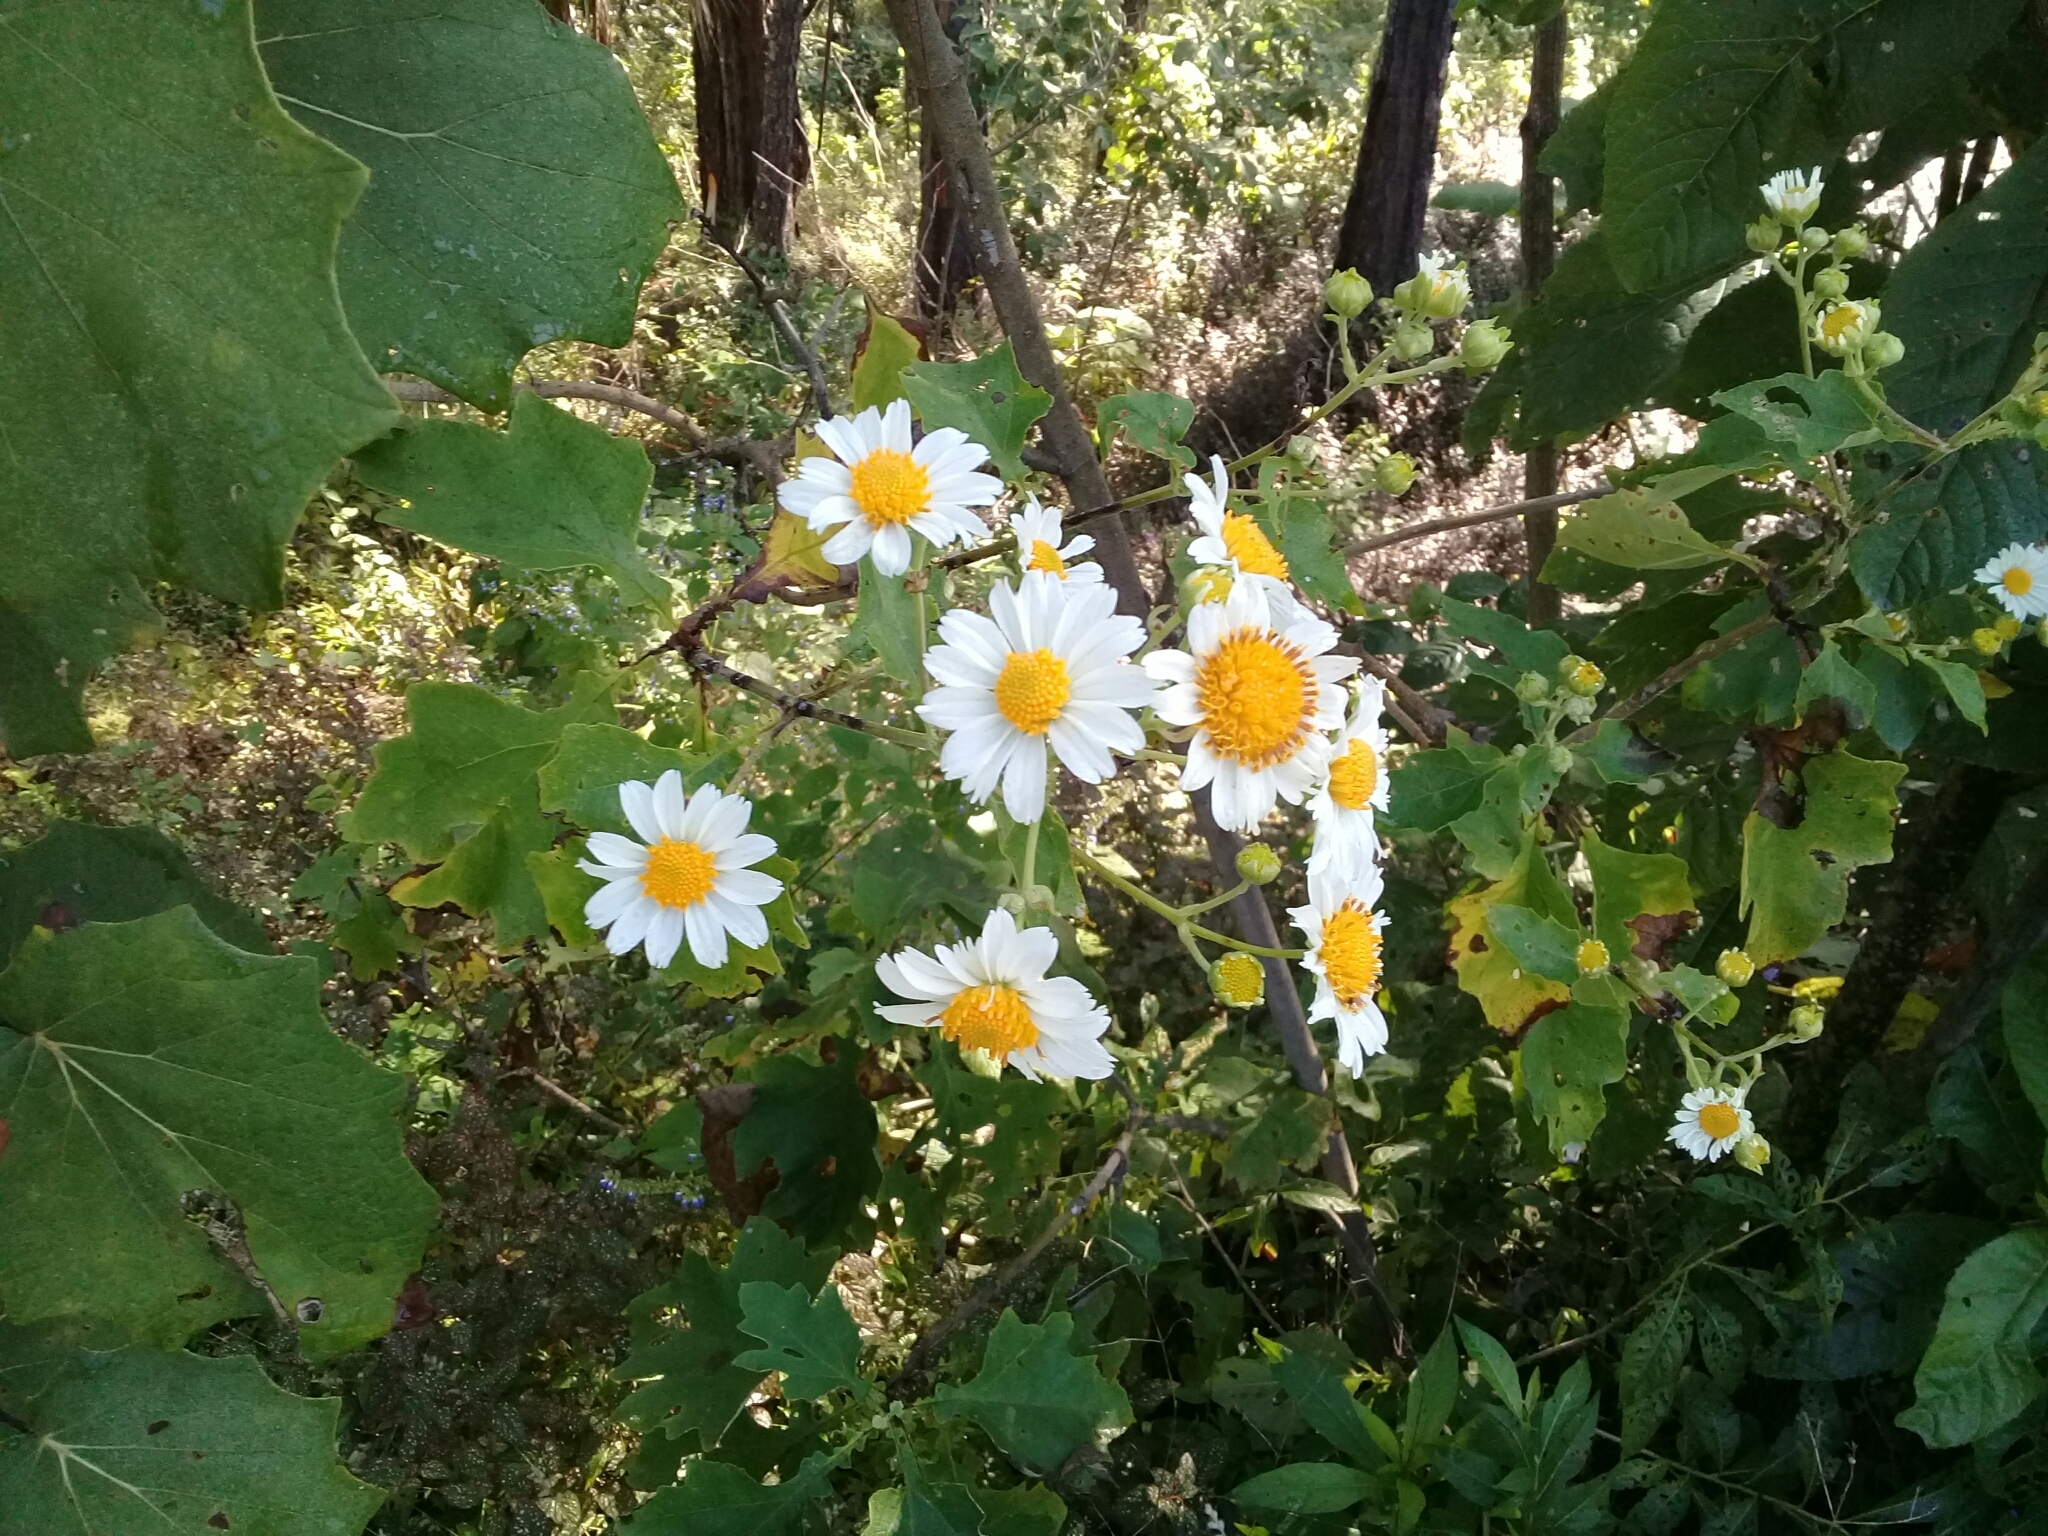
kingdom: Plantae
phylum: Tracheophyta
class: Magnoliopsida
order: Asterales
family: Asteraceae
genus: Montanoa
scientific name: Montanoa imbricata
